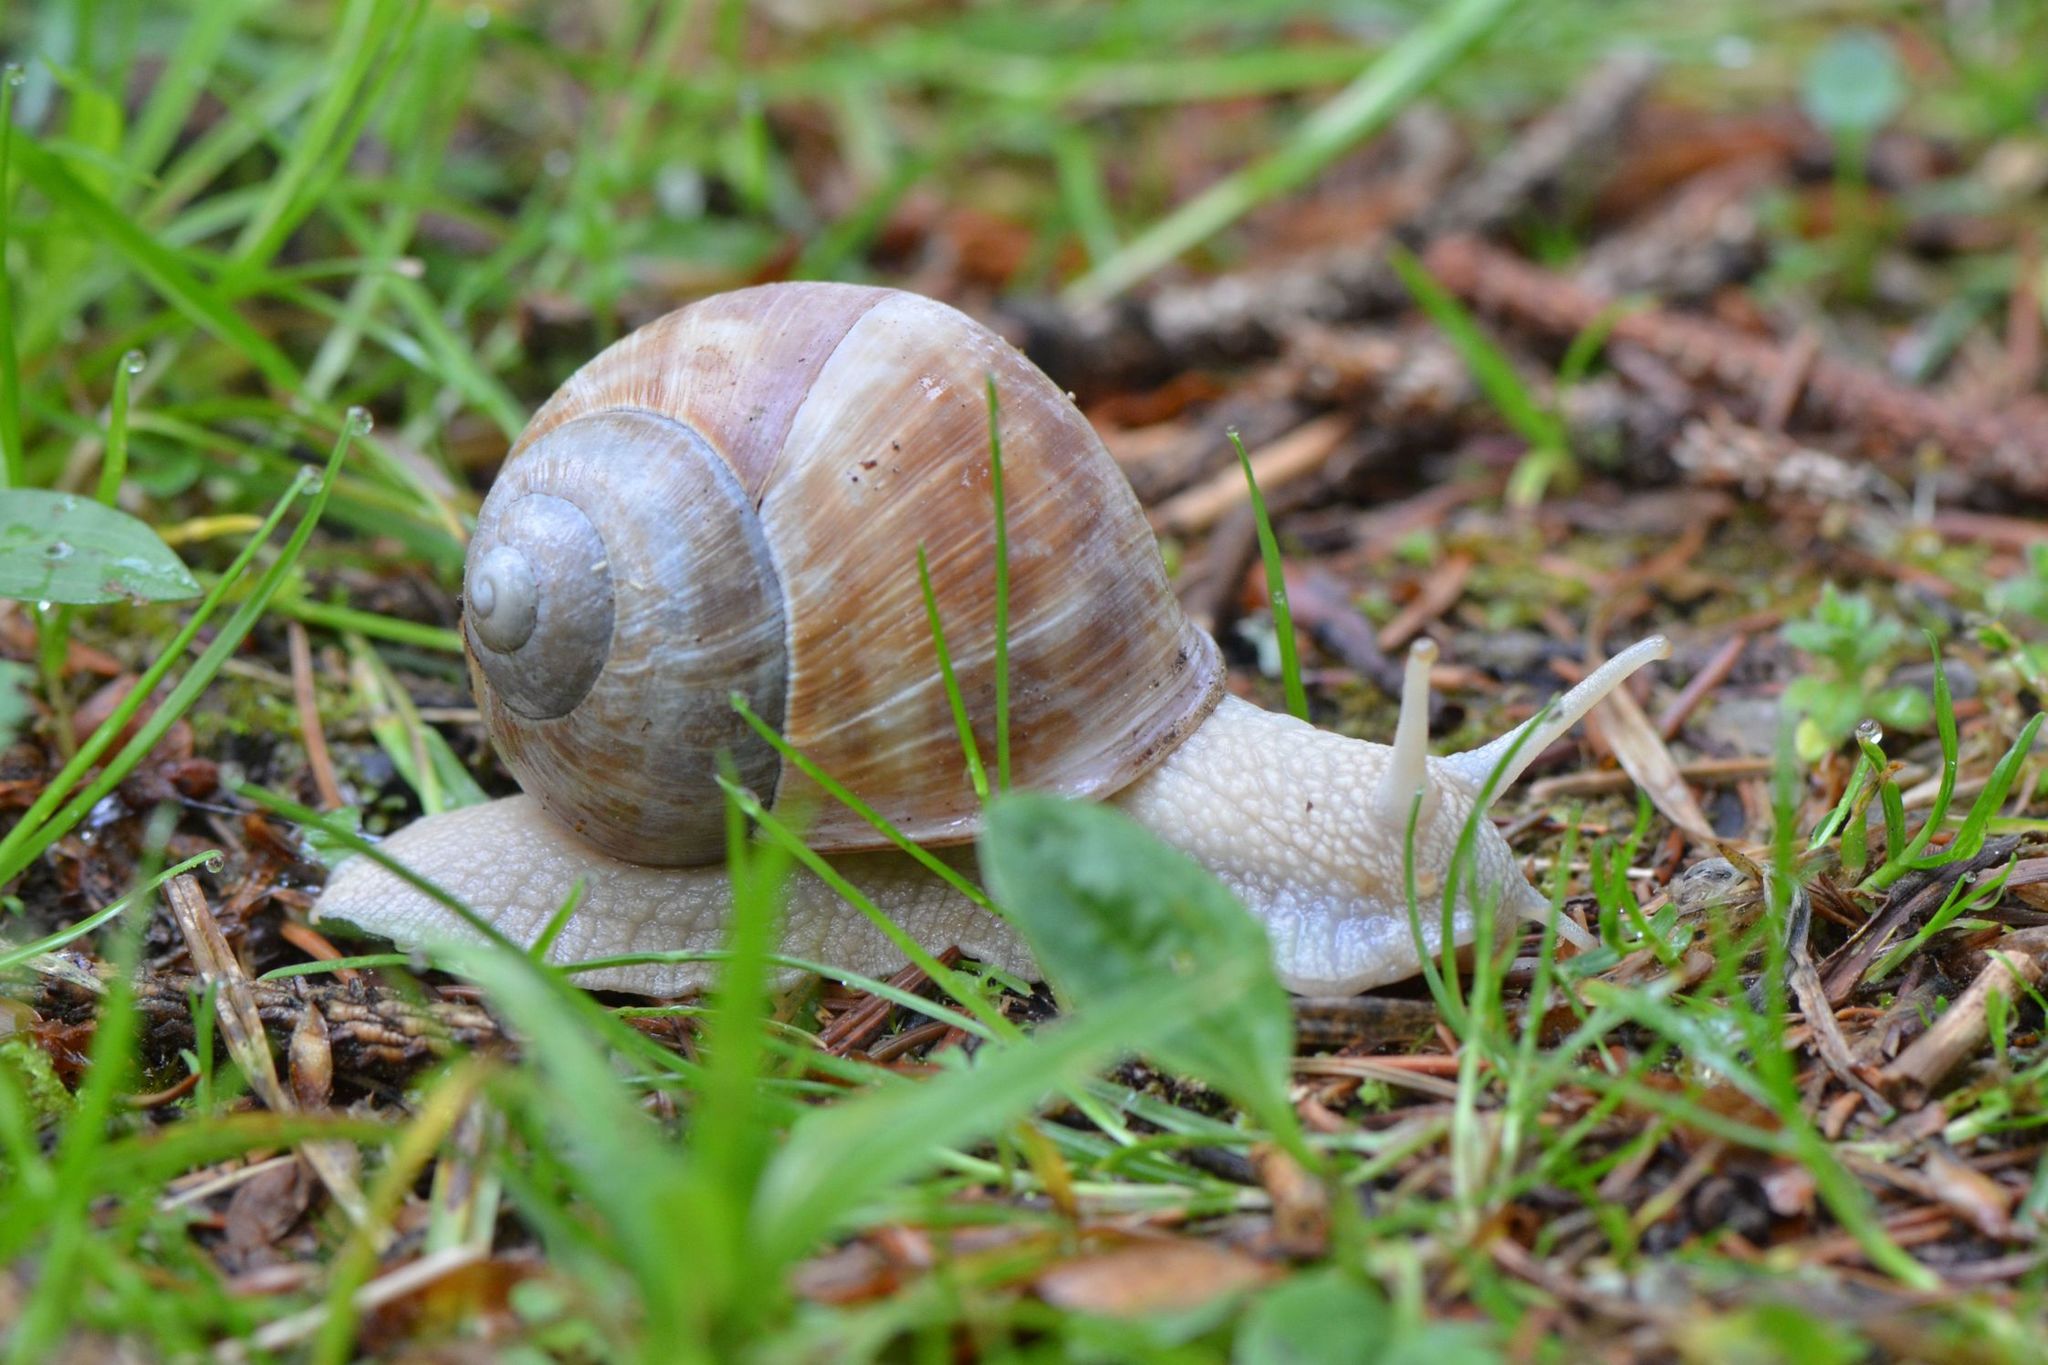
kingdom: Animalia
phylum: Mollusca
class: Gastropoda
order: Stylommatophora
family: Helicidae
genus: Helix
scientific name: Helix pomatia
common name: Roman snail
